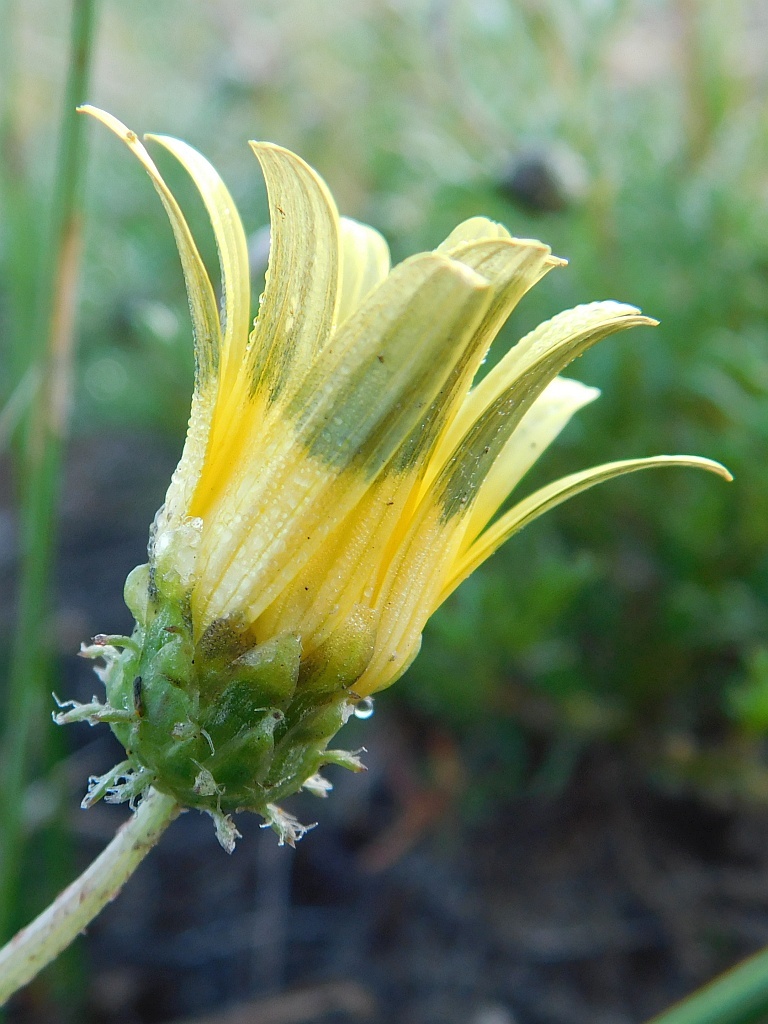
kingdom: Plantae
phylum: Tracheophyta
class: Magnoliopsida
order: Asterales
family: Asteraceae
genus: Arctotheca
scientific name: Arctotheca prostrata
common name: Capeweed
